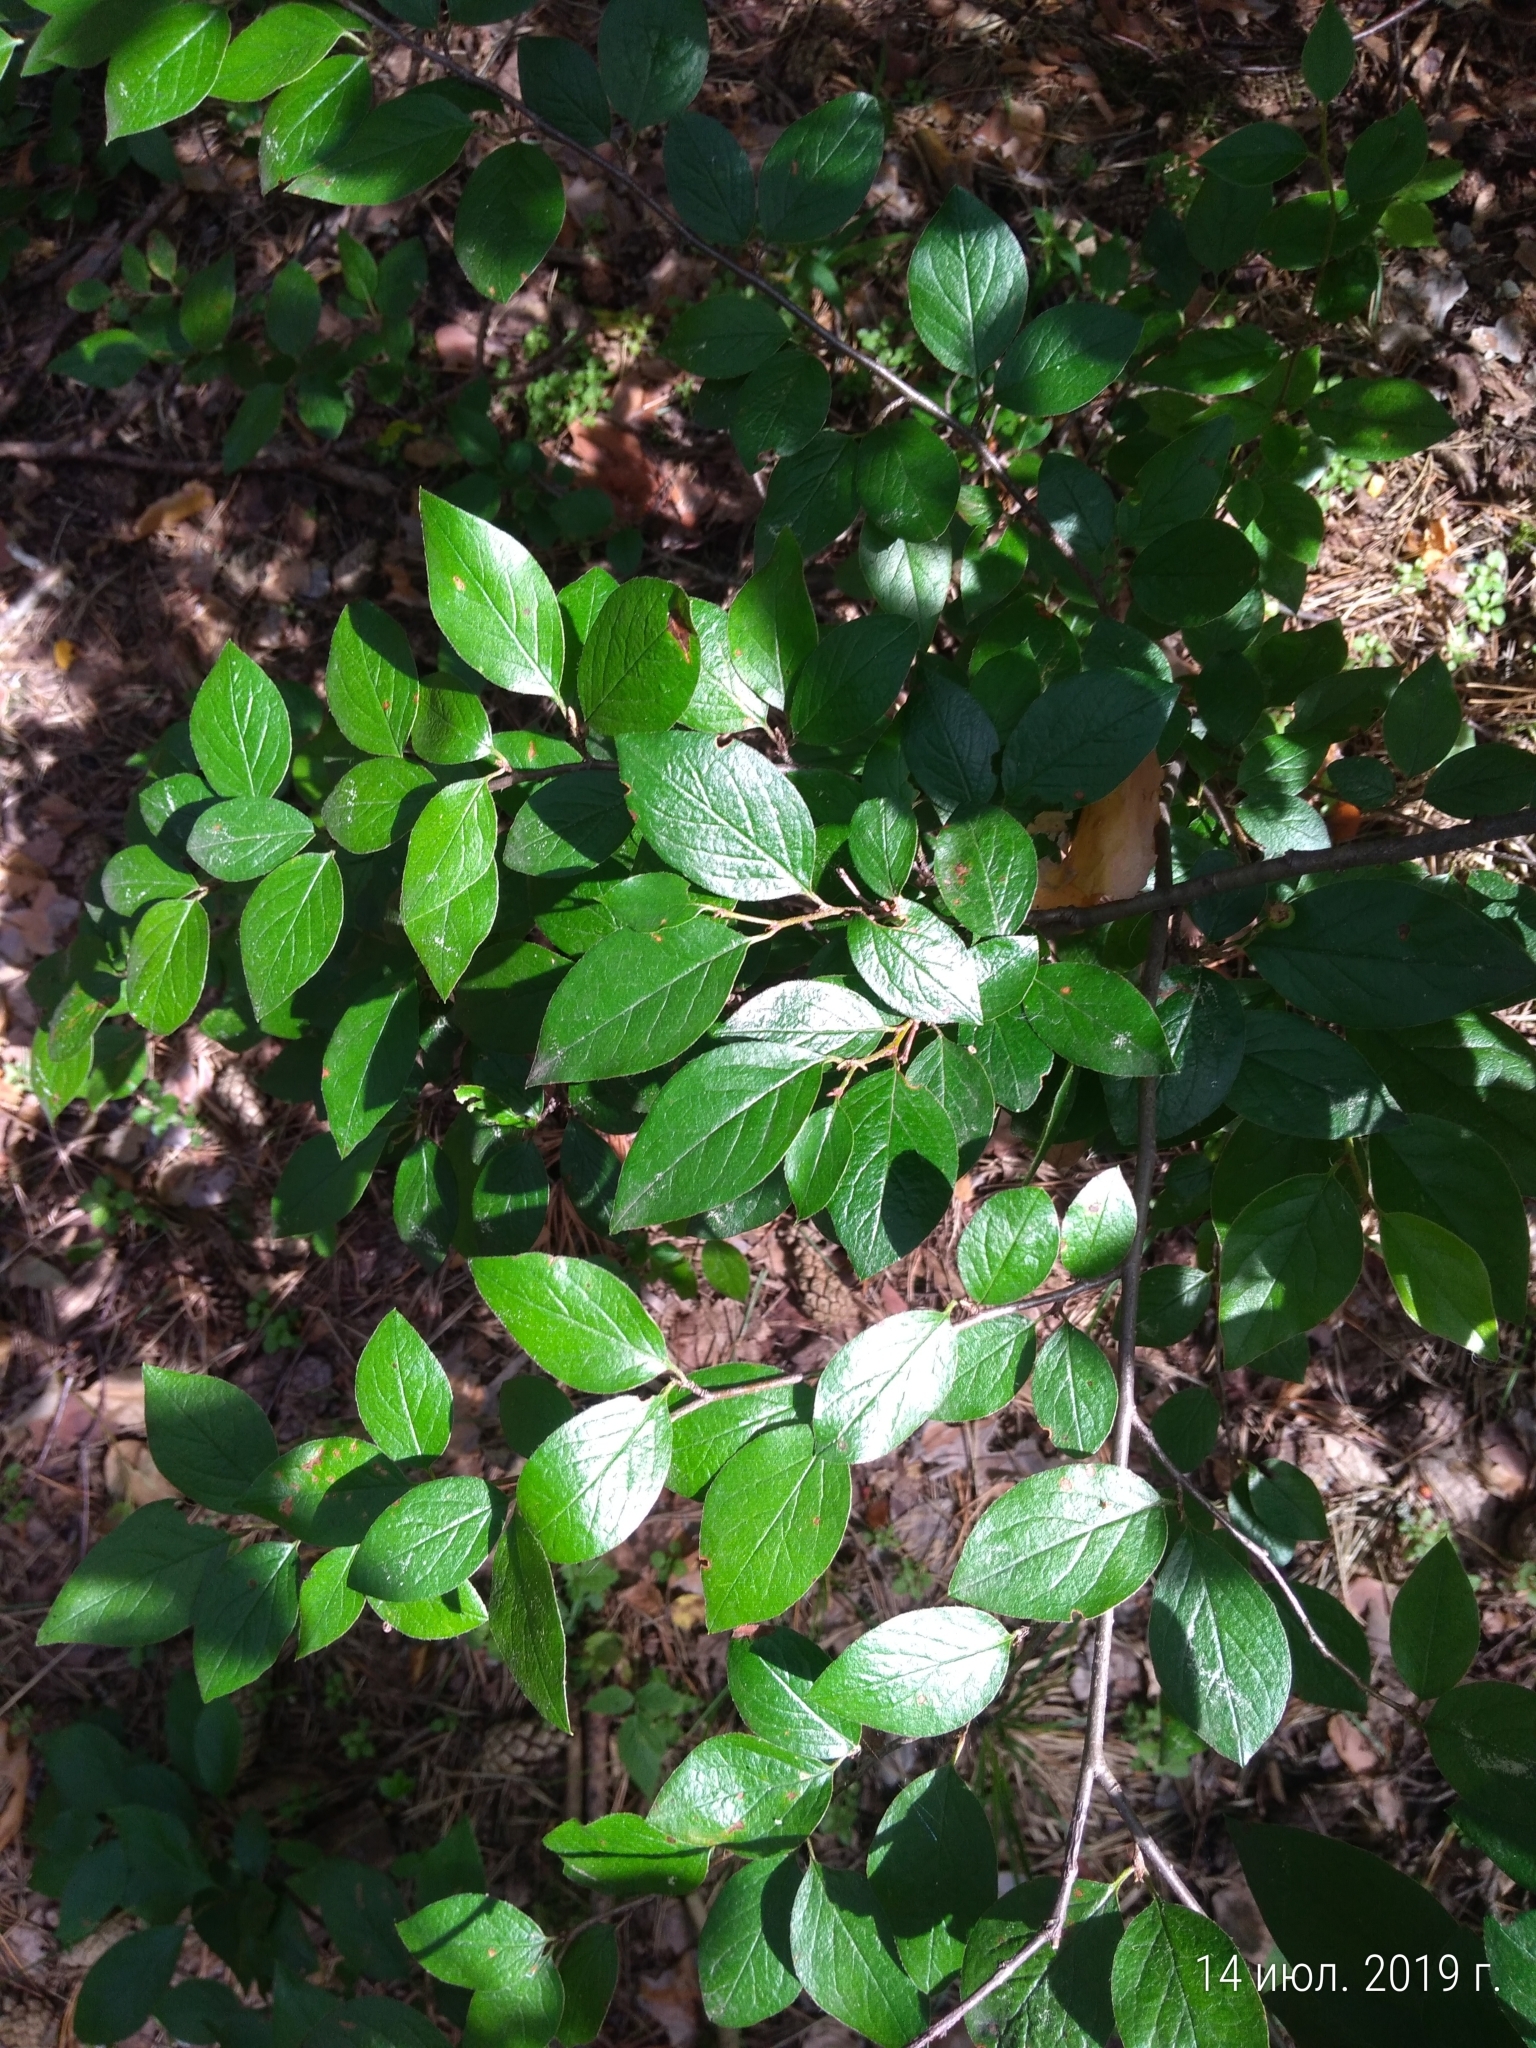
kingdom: Plantae
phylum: Tracheophyta
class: Magnoliopsida
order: Rosales
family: Rosaceae
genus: Cotoneaster
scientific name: Cotoneaster acutifolius
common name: Peking cotoneaster
